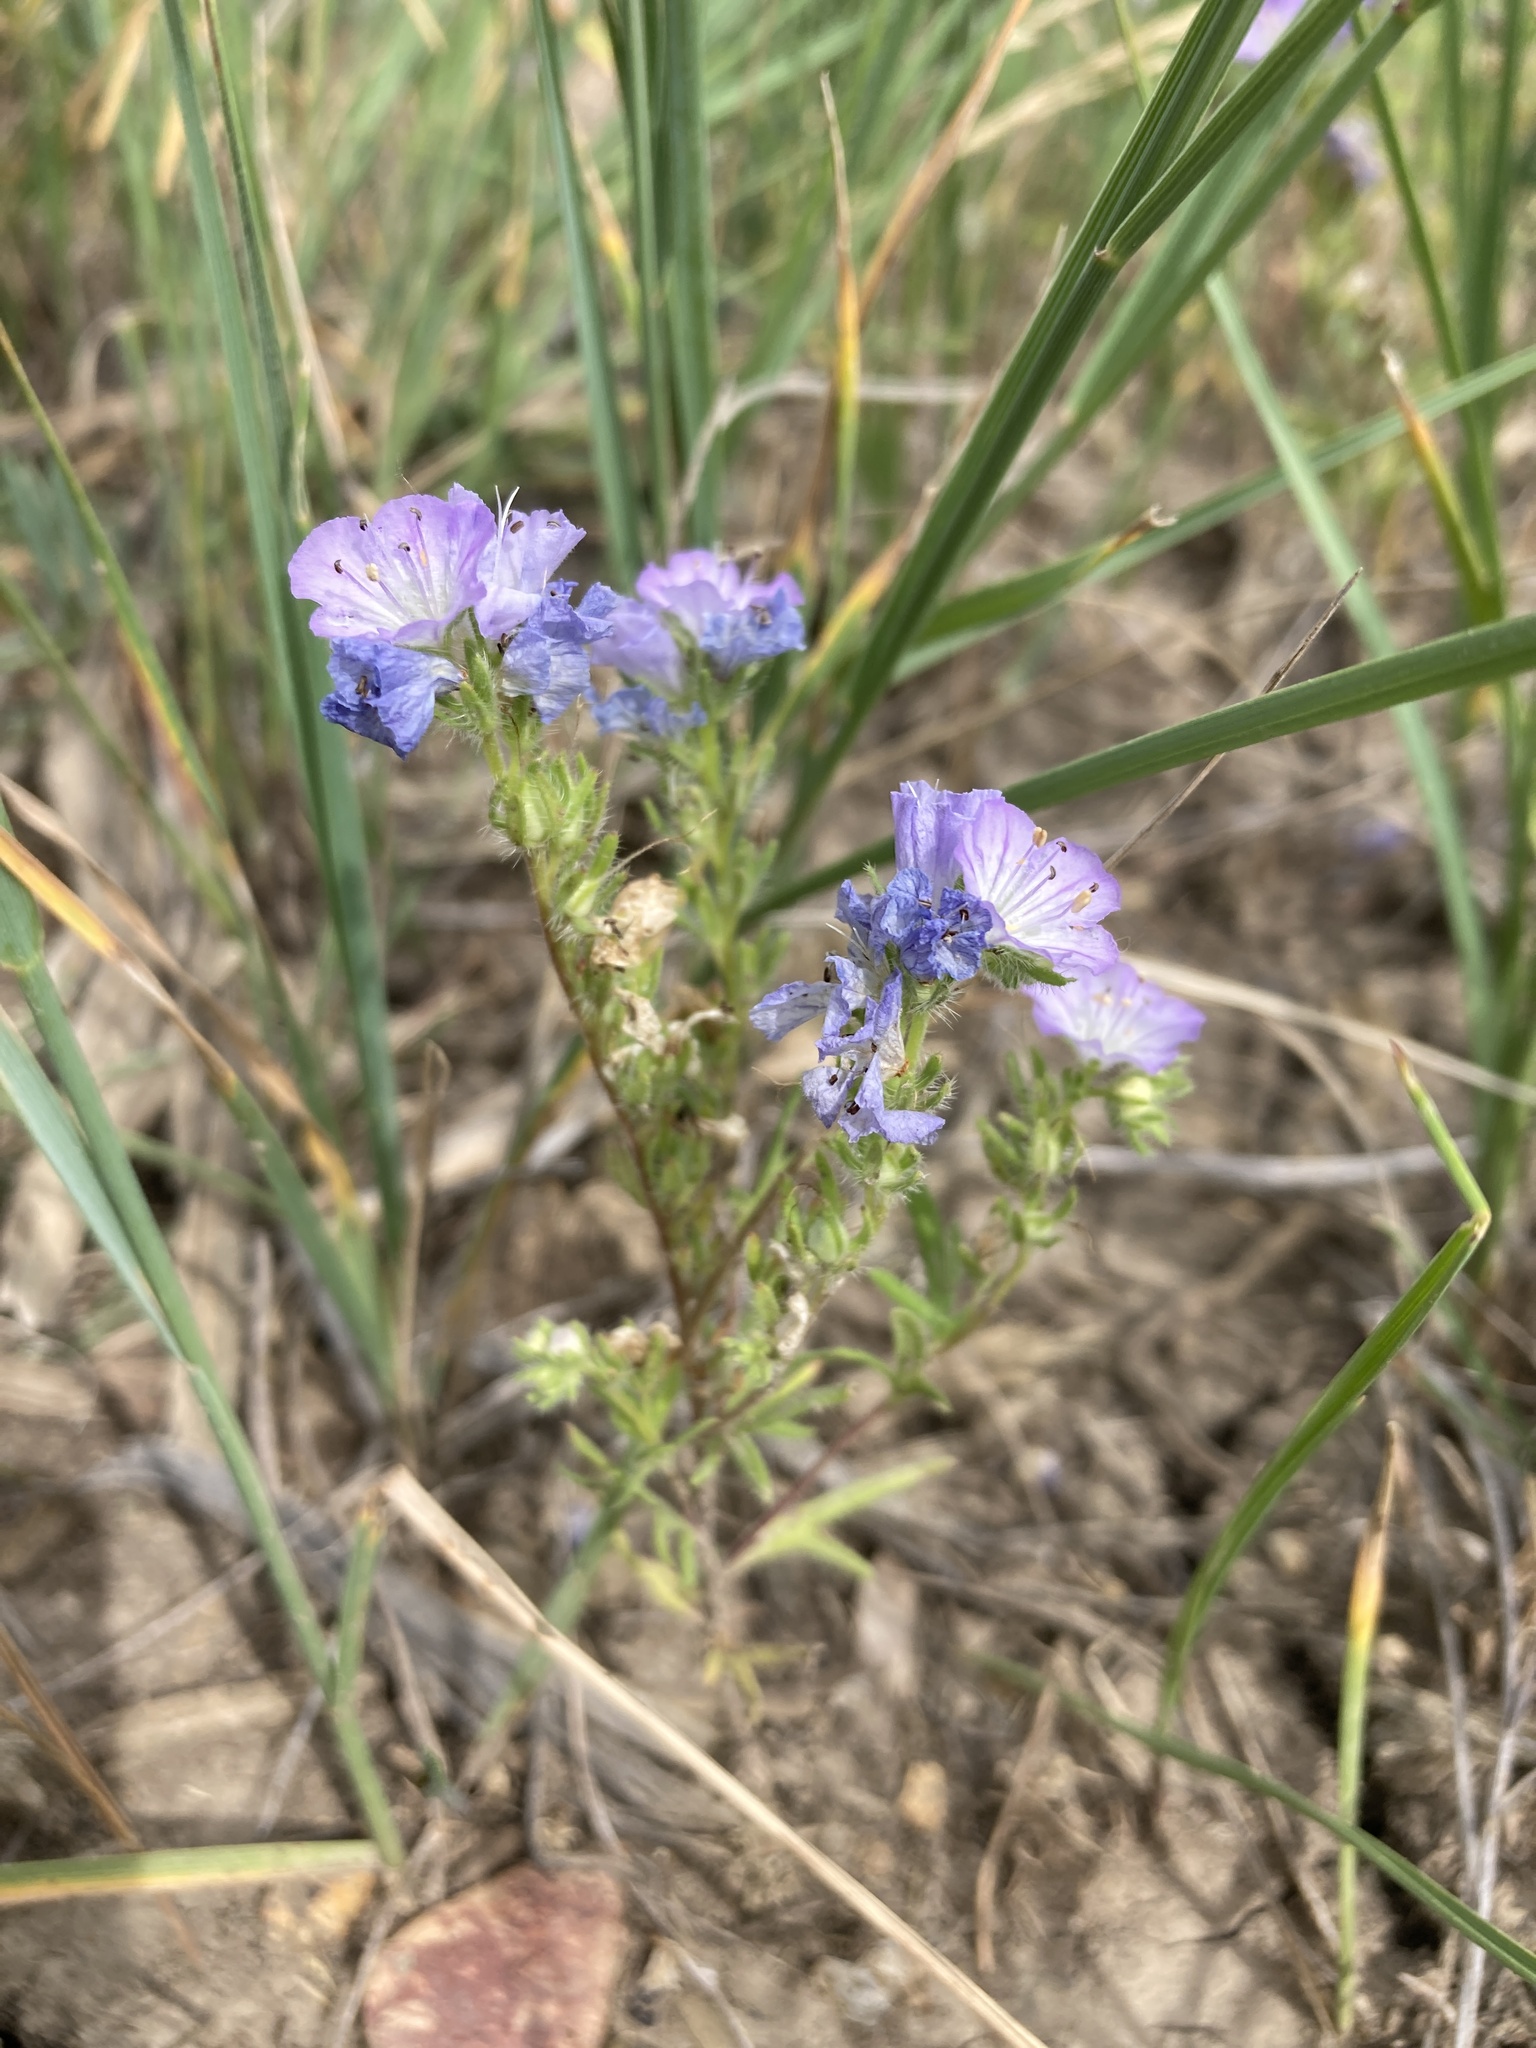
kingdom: Plantae
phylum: Tracheophyta
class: Magnoliopsida
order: Boraginales
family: Hydrophyllaceae
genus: Phacelia
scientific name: Phacelia linearis
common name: Linear-leaved phacelia
